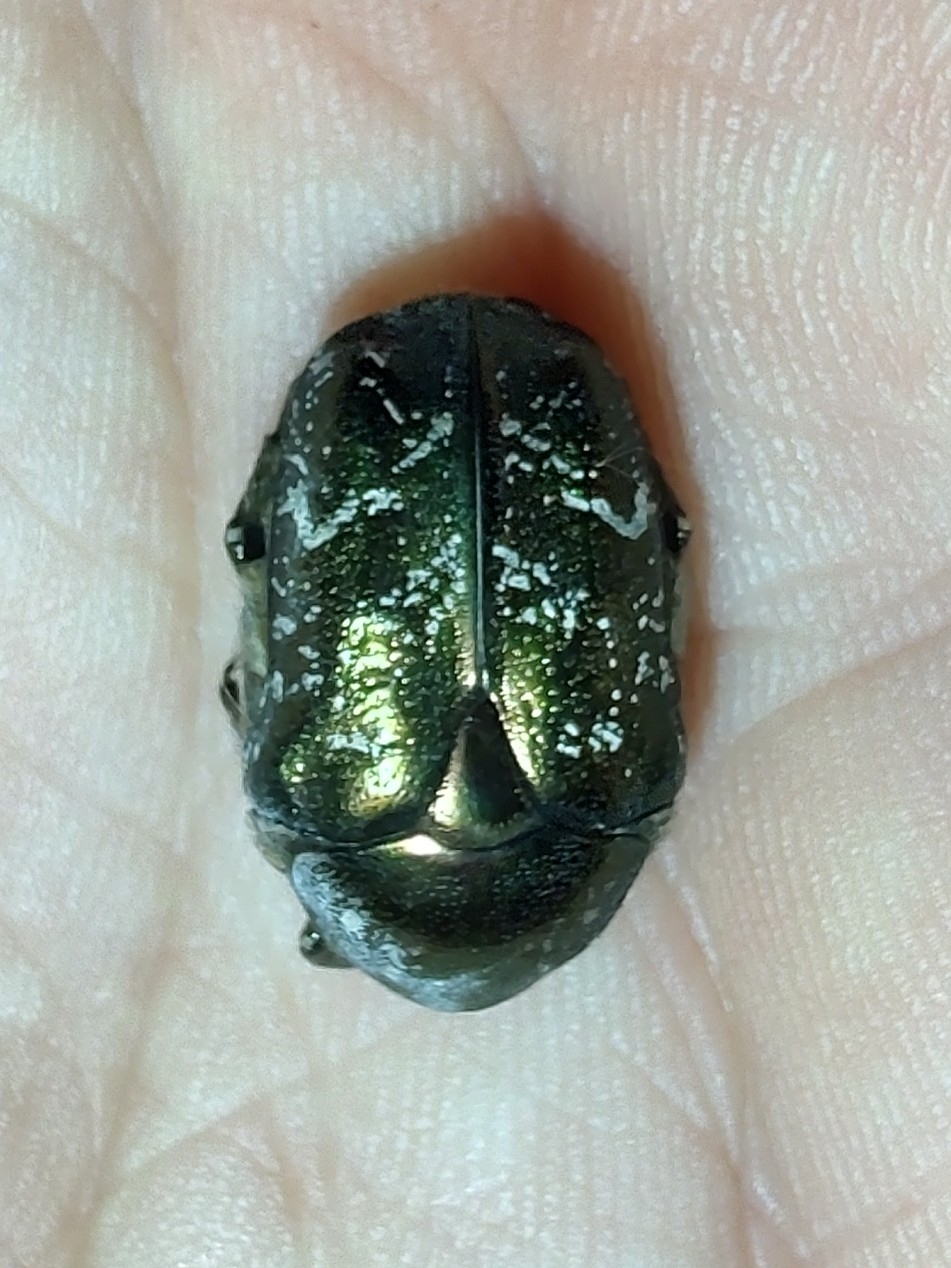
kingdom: Animalia
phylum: Arthropoda
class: Insecta
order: Coleoptera
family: Scarabaeidae
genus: Protaetia
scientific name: Protaetia cuprea
